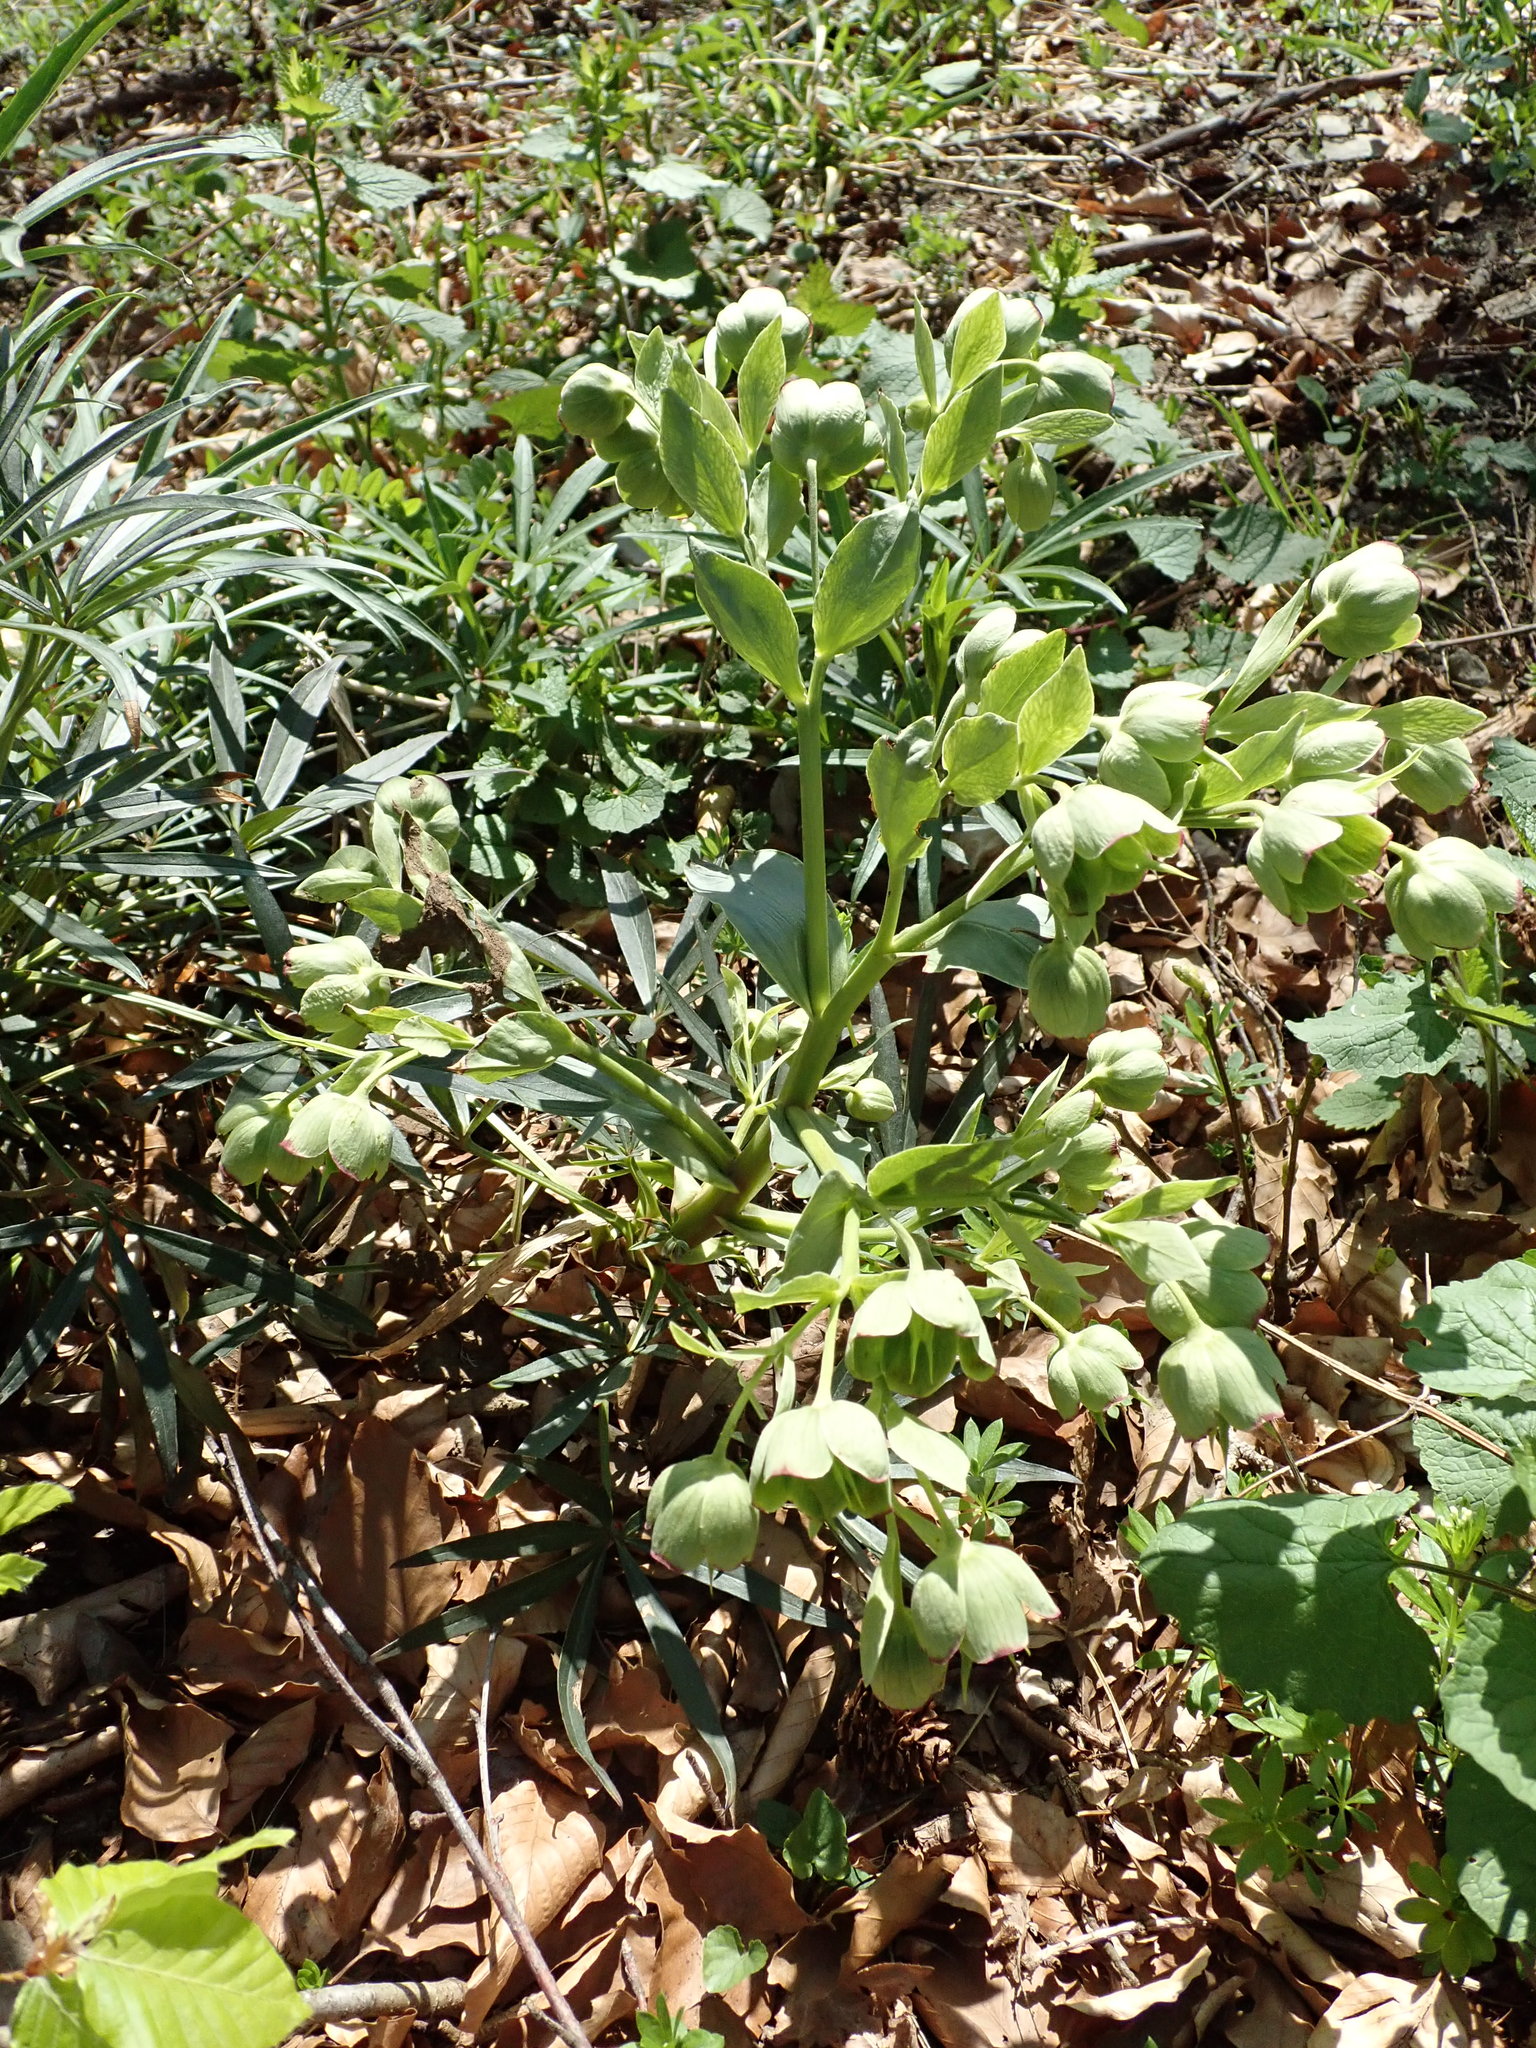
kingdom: Plantae
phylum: Tracheophyta
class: Magnoliopsida
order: Ranunculales
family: Ranunculaceae
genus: Helleborus
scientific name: Helleborus foetidus
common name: Stinking hellebore
